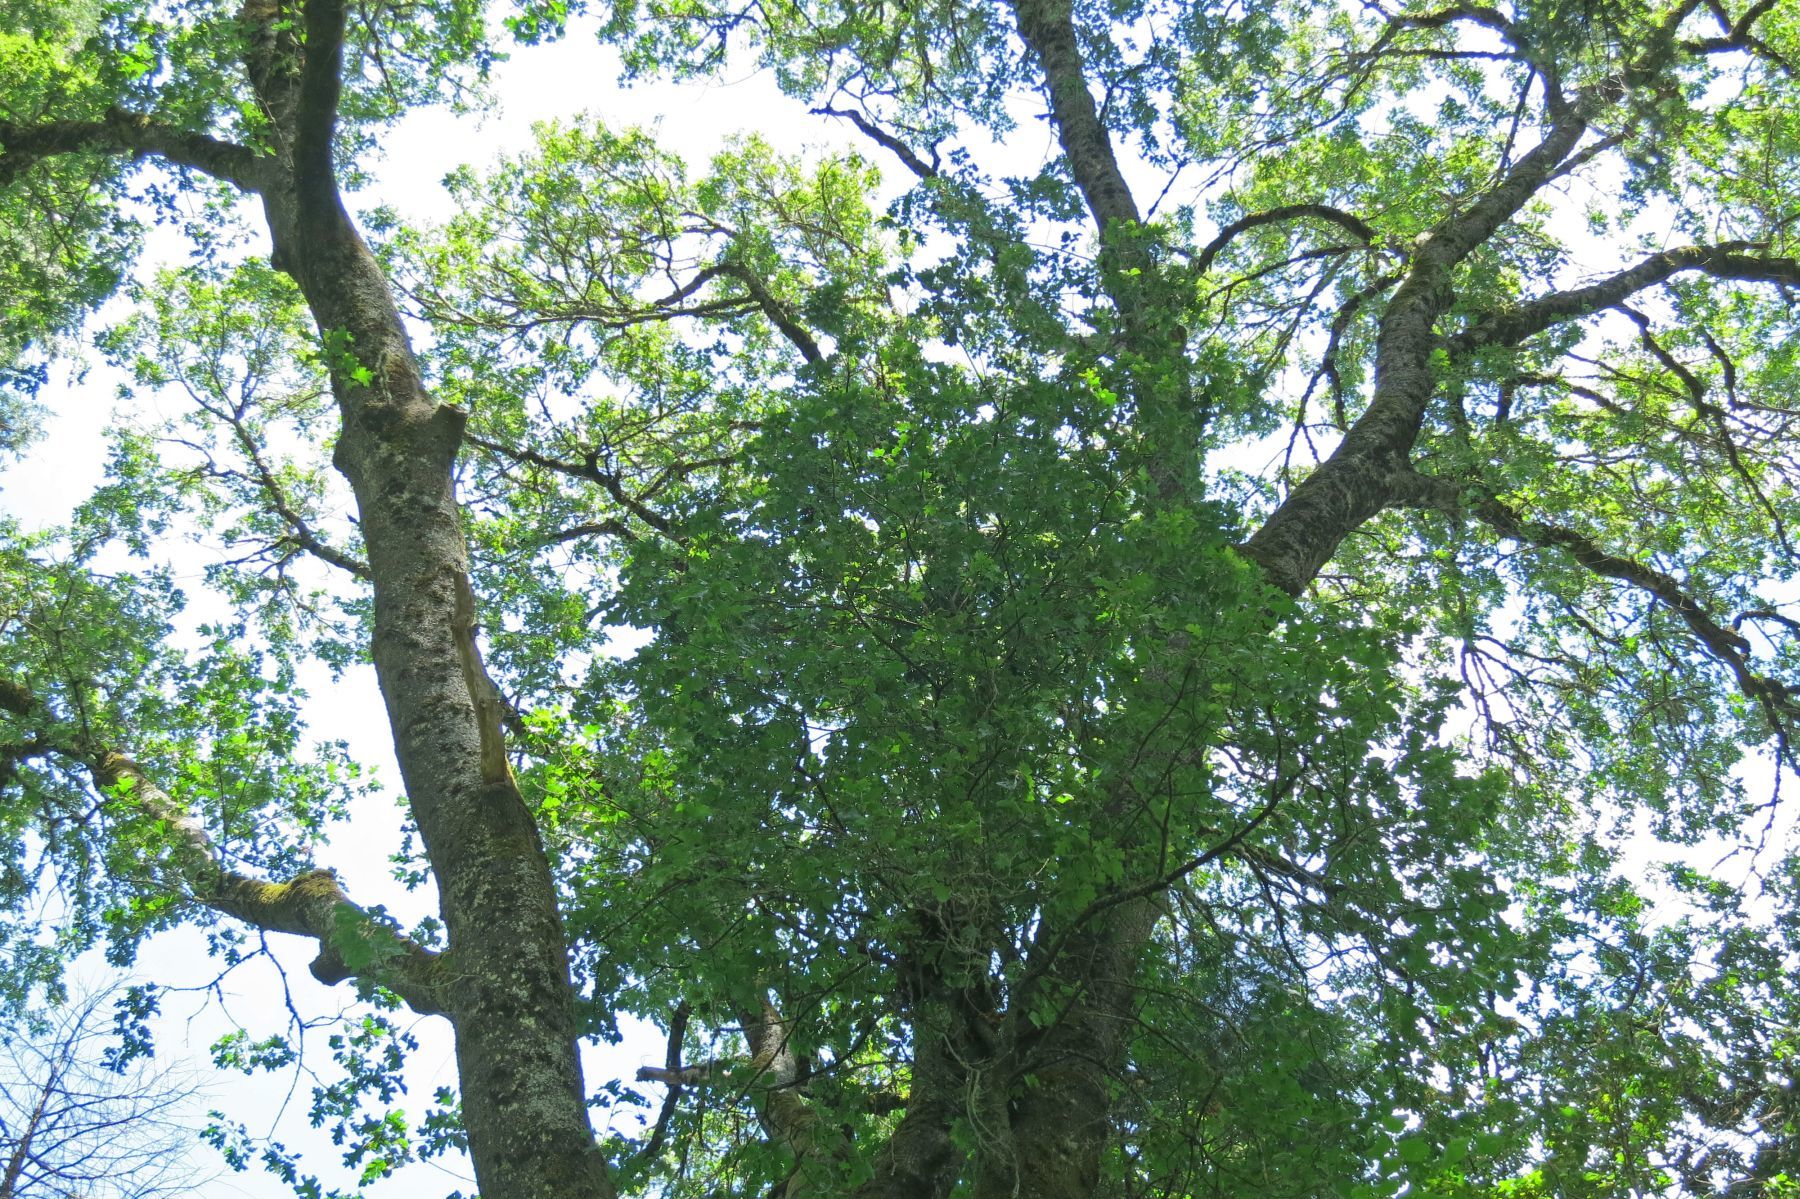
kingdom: Plantae
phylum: Tracheophyta
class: Magnoliopsida
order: Fagales
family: Fagaceae
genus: Quercus
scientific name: Quercus kelloggii
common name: California black oak
